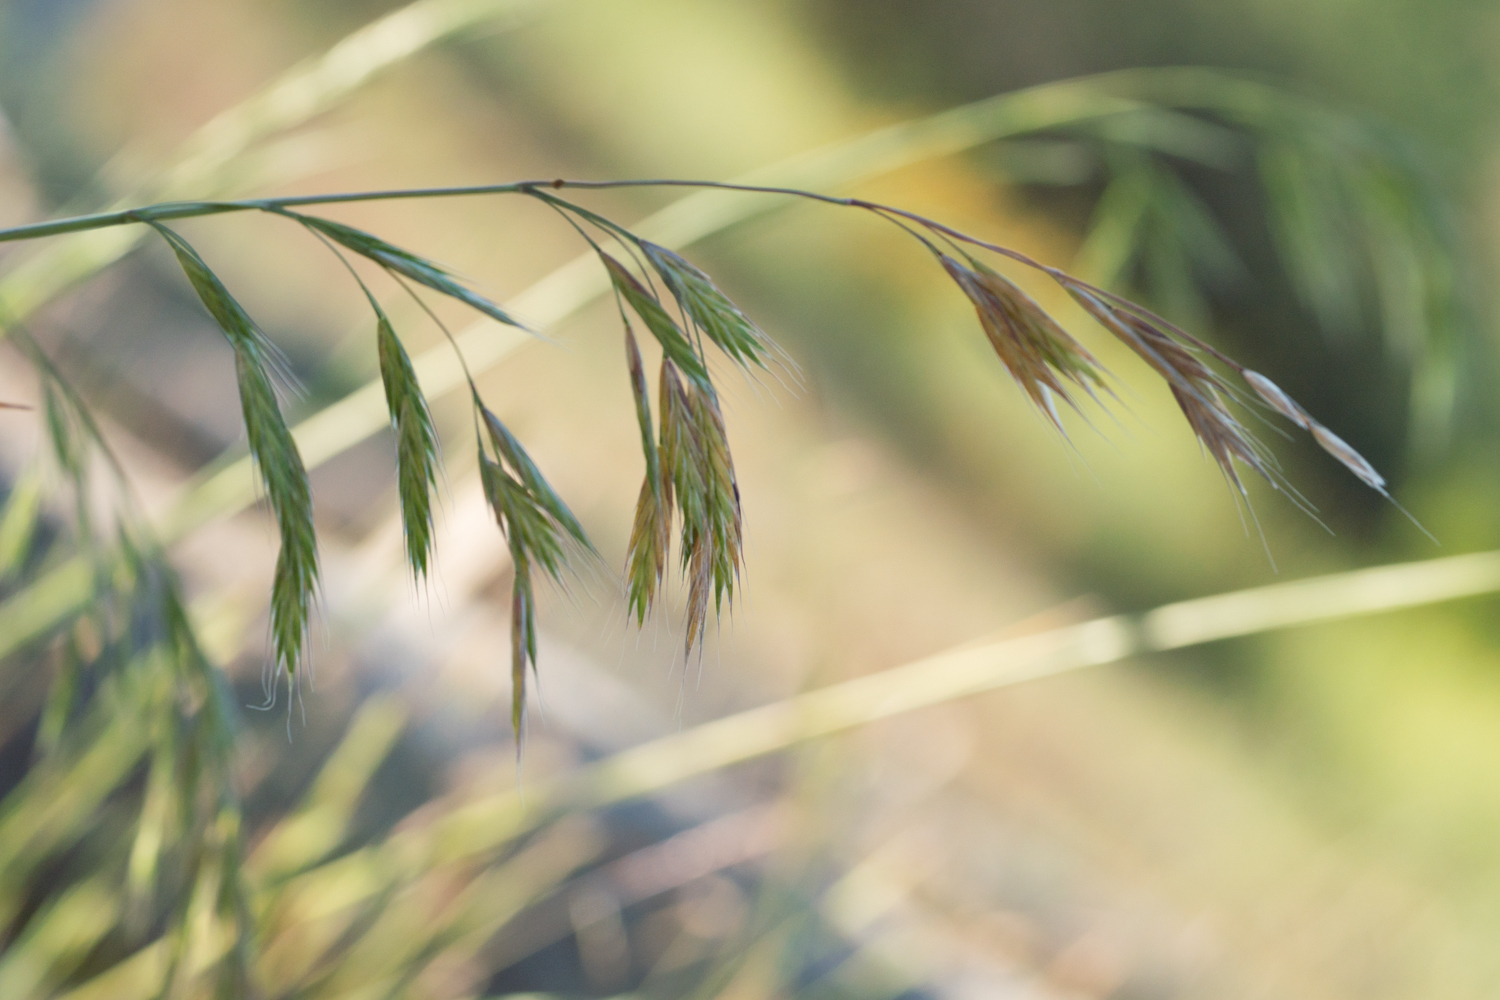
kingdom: Plantae
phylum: Tracheophyta
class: Liliopsida
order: Poales
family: Poaceae
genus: Bromus
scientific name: Bromus catharticus
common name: Rescuegrass
